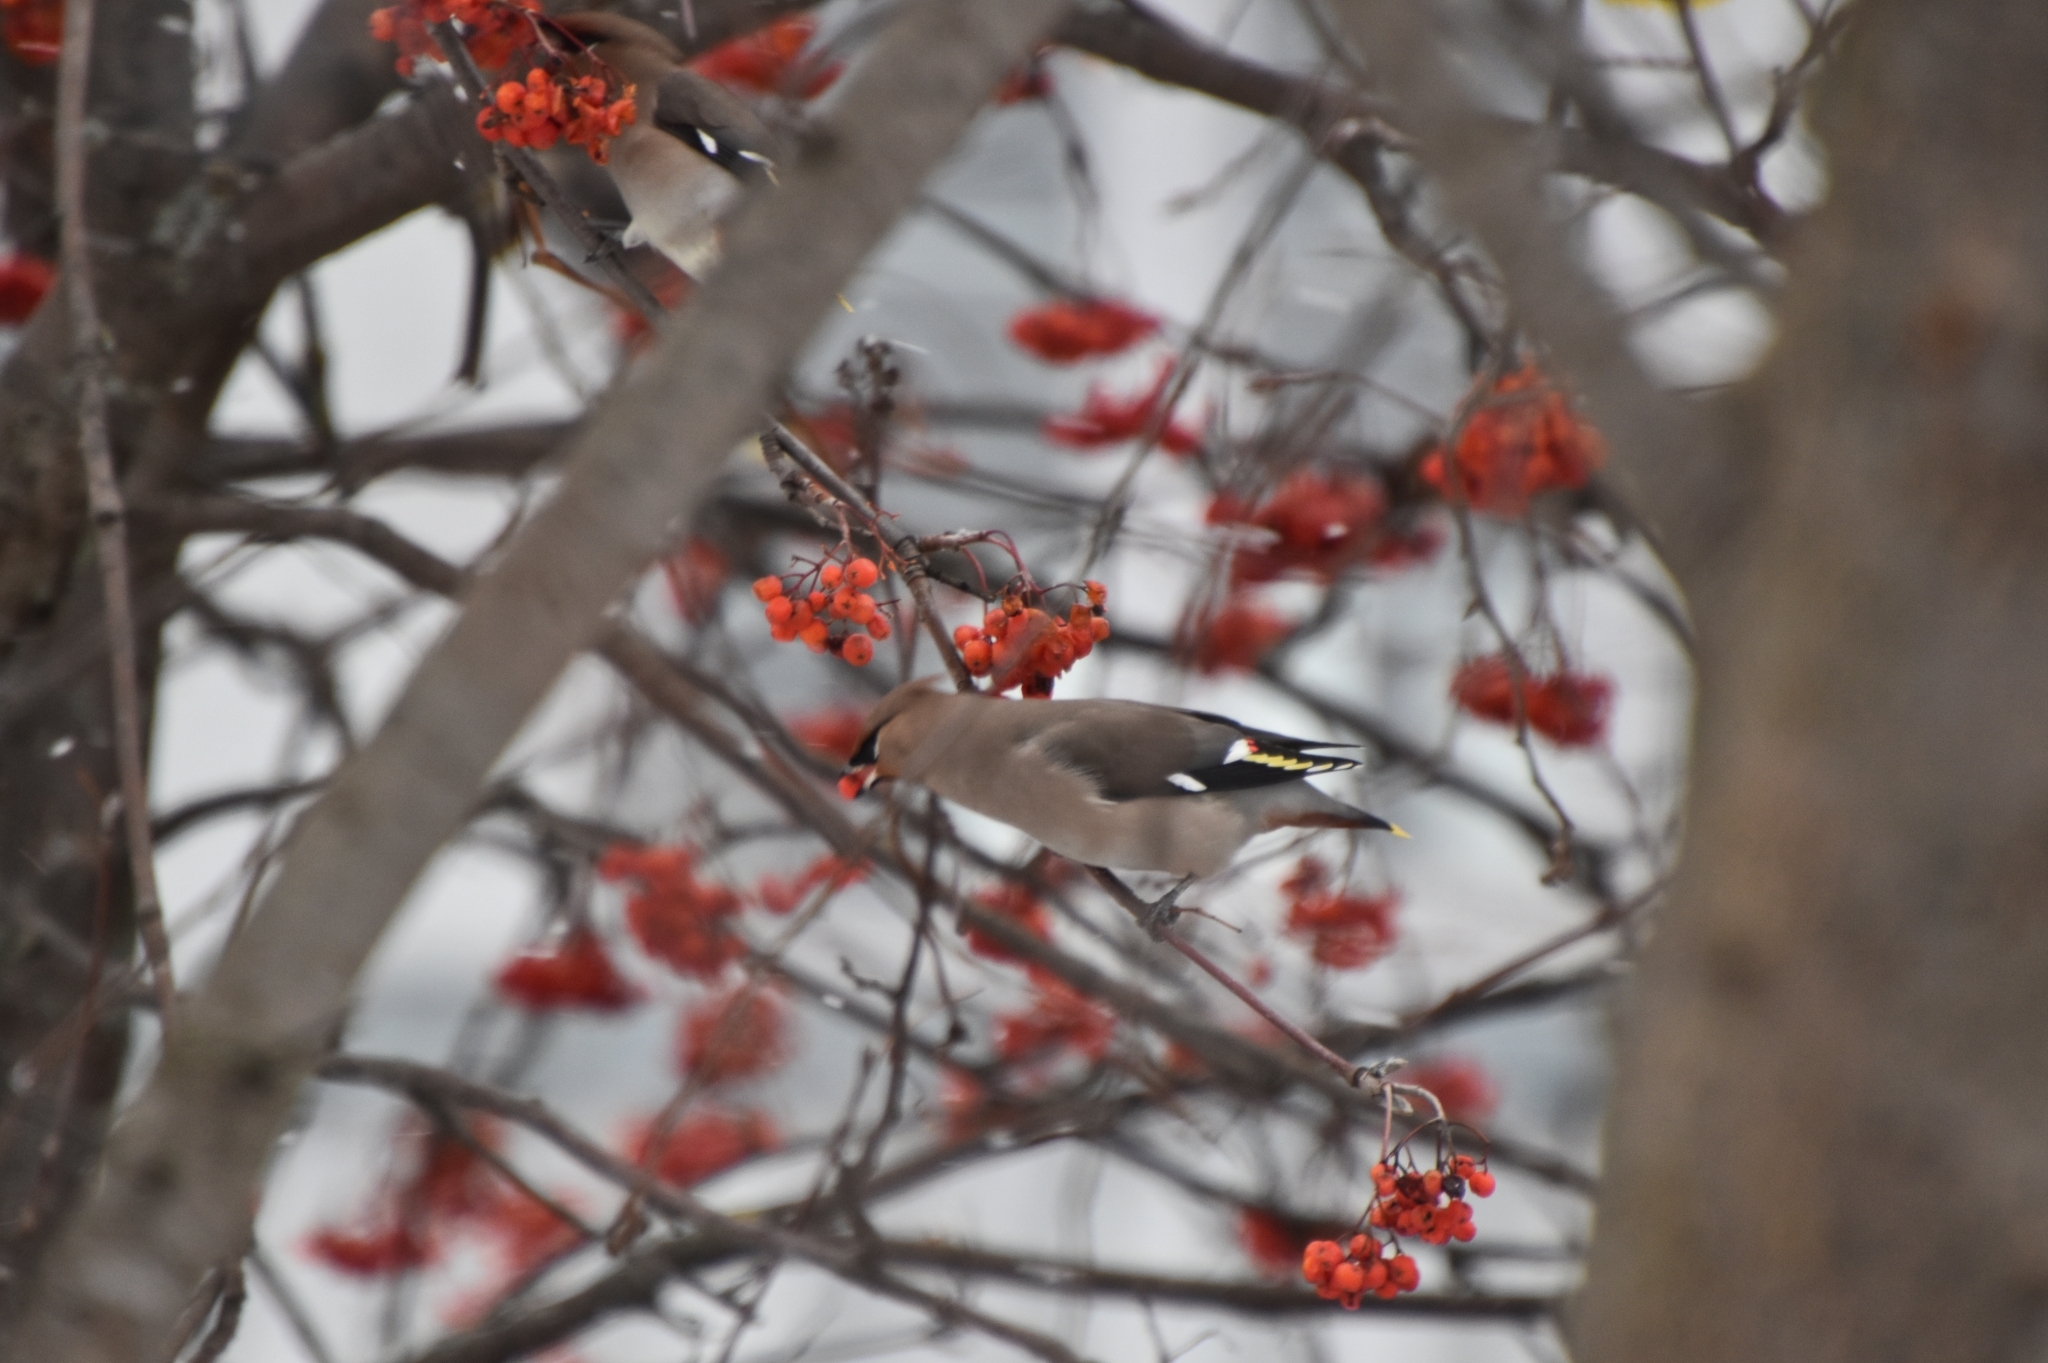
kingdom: Animalia
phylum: Chordata
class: Aves
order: Passeriformes
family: Bombycillidae
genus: Bombycilla
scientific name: Bombycilla garrulus
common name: Bohemian waxwing
